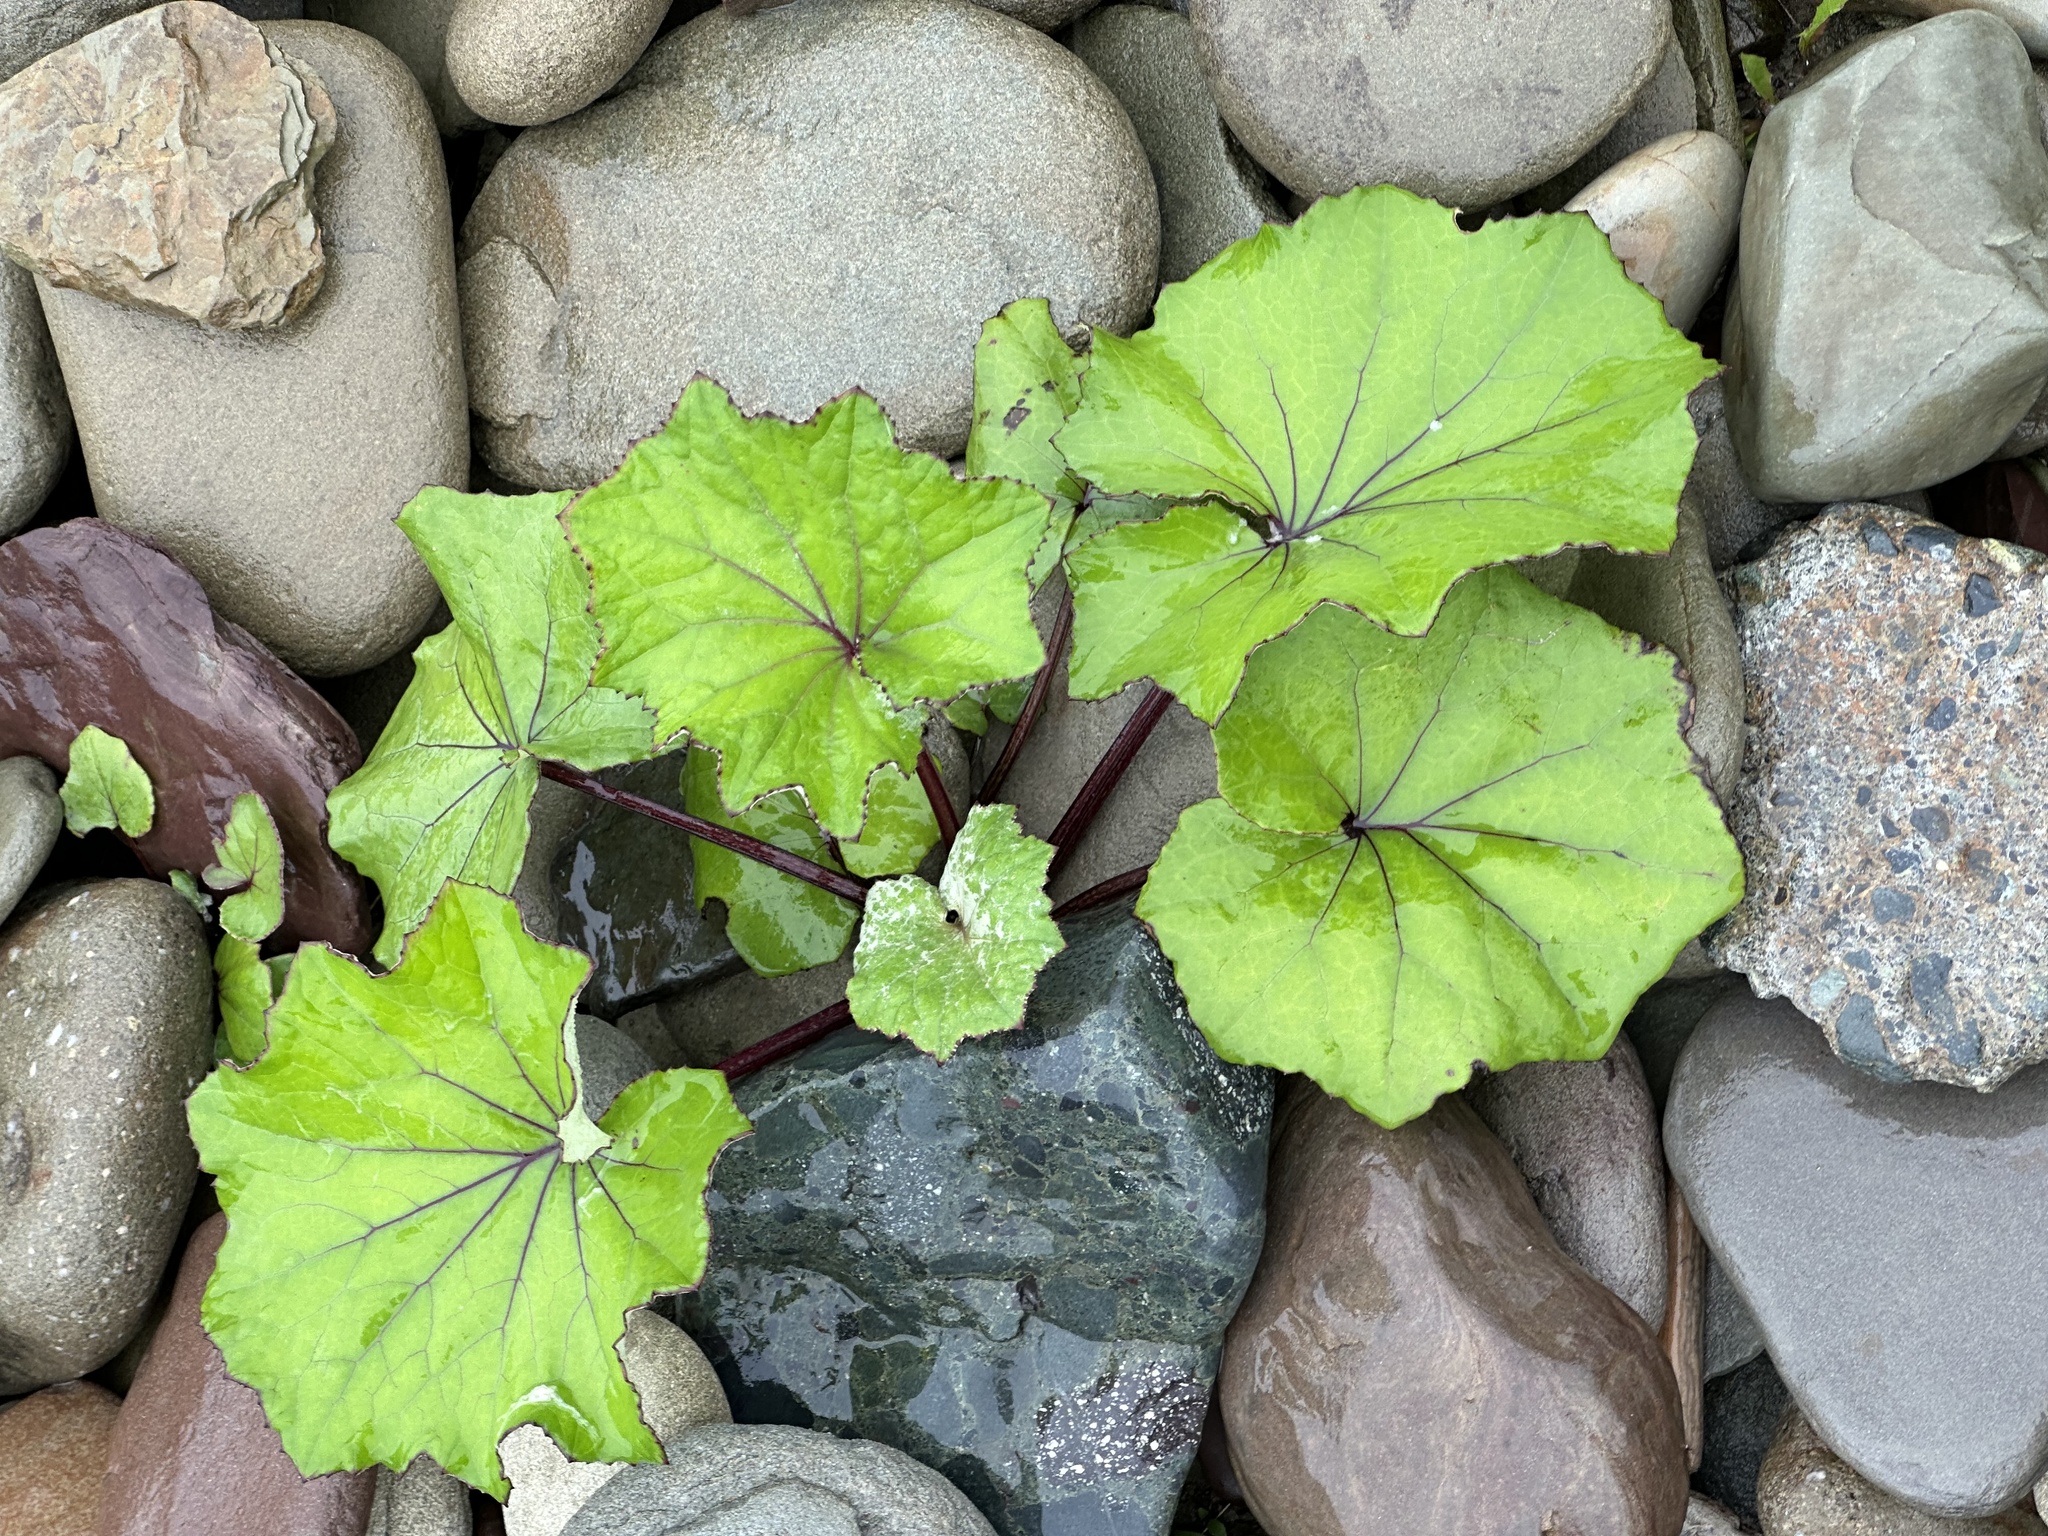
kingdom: Plantae
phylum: Tracheophyta
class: Magnoliopsida
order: Asterales
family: Asteraceae
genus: Tussilago
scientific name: Tussilago farfara
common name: Coltsfoot
